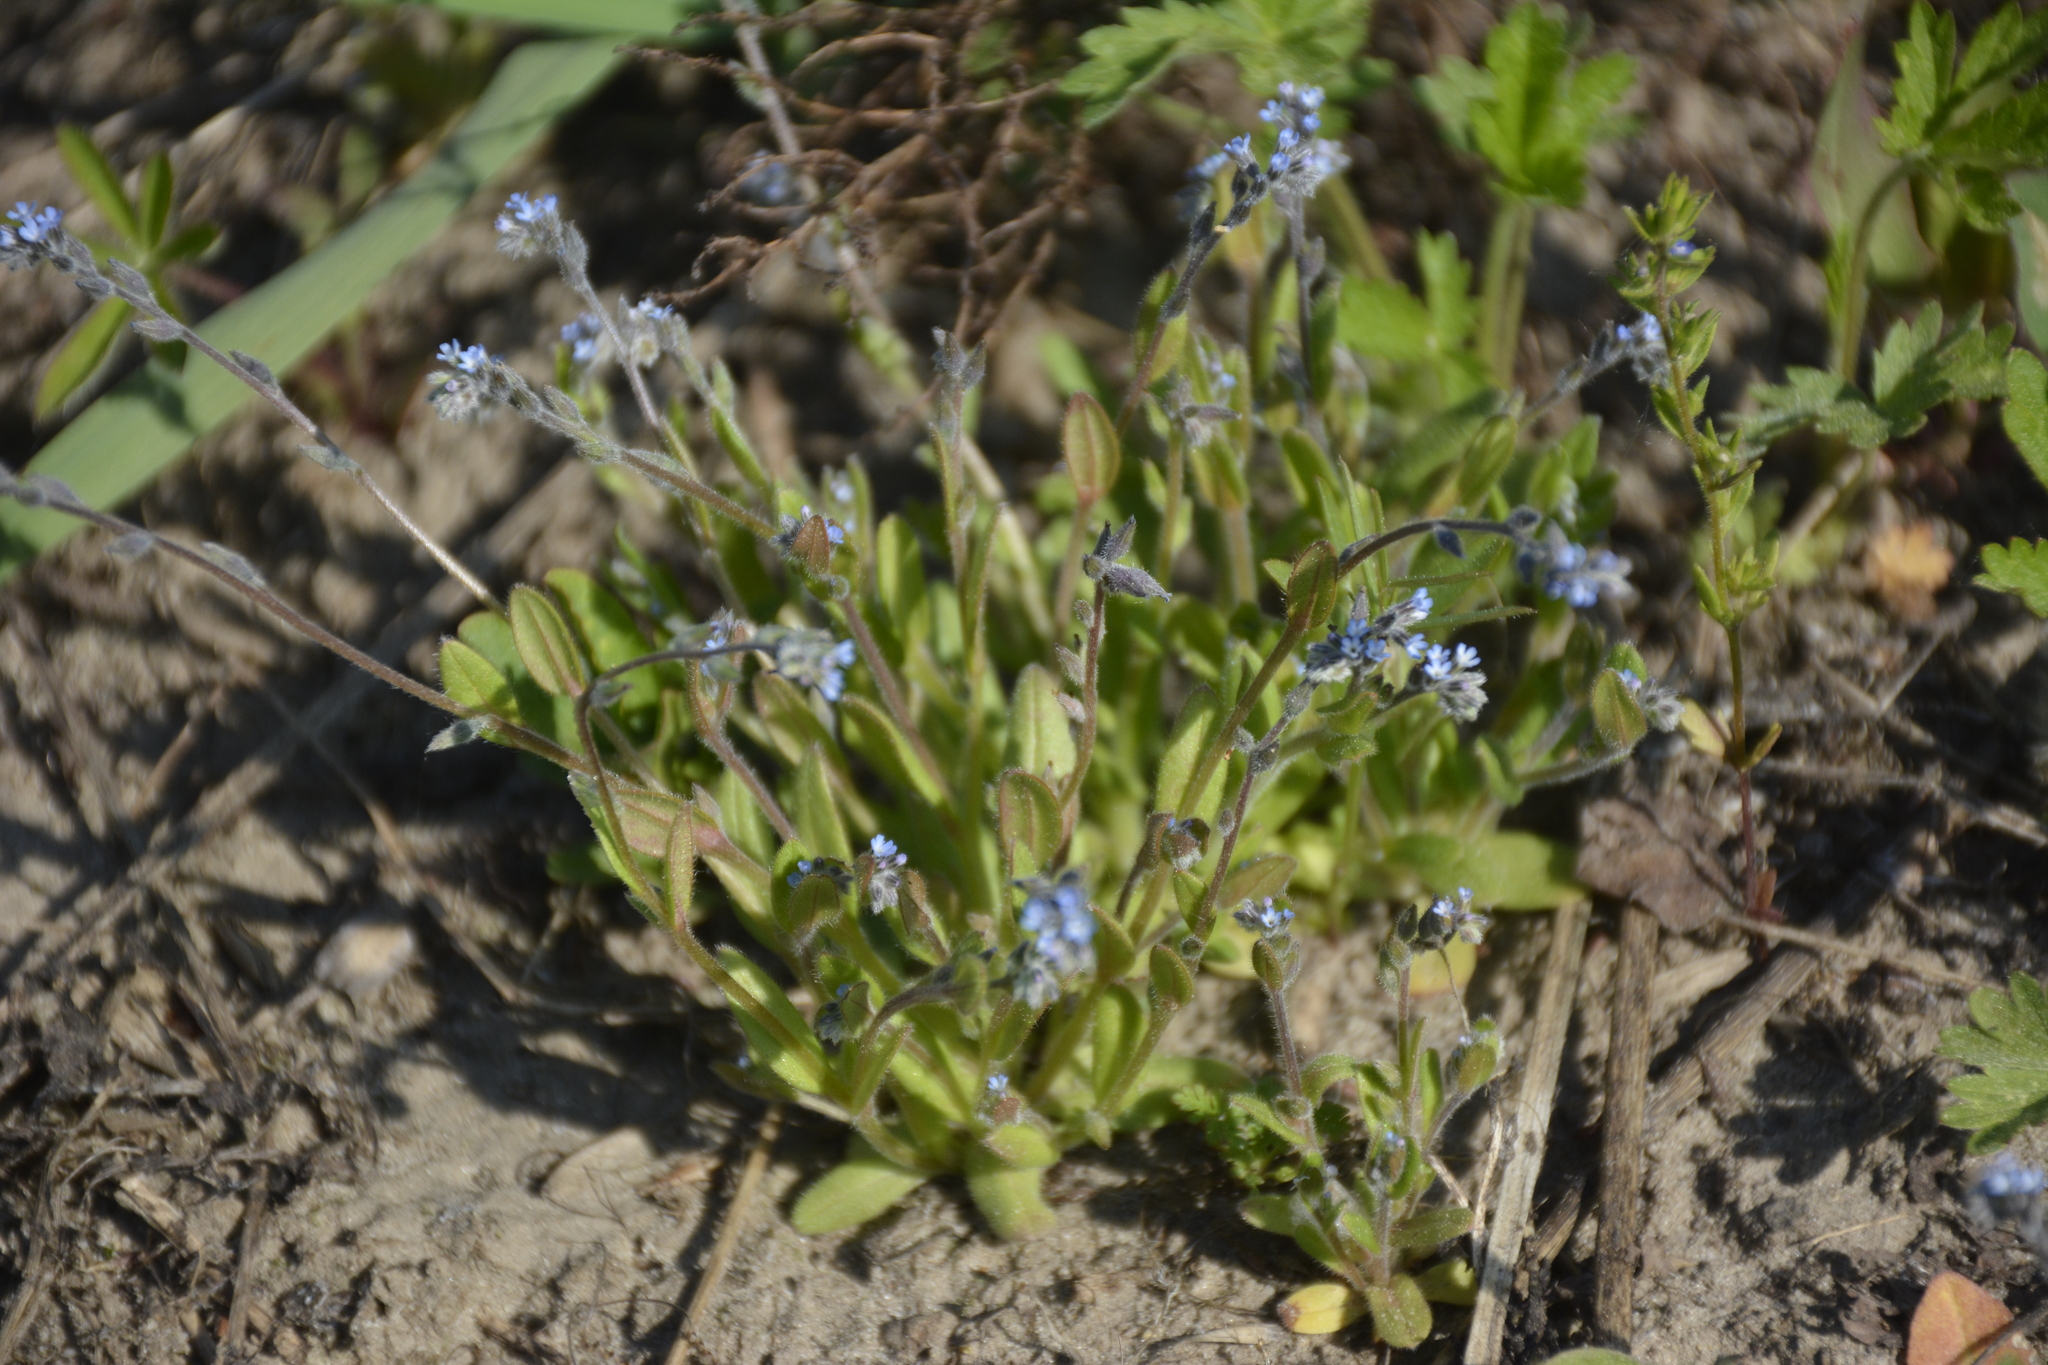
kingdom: Plantae
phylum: Tracheophyta
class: Magnoliopsida
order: Boraginales
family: Boraginaceae
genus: Myosotis
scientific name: Myosotis stricta
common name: Strict forget-me-not
